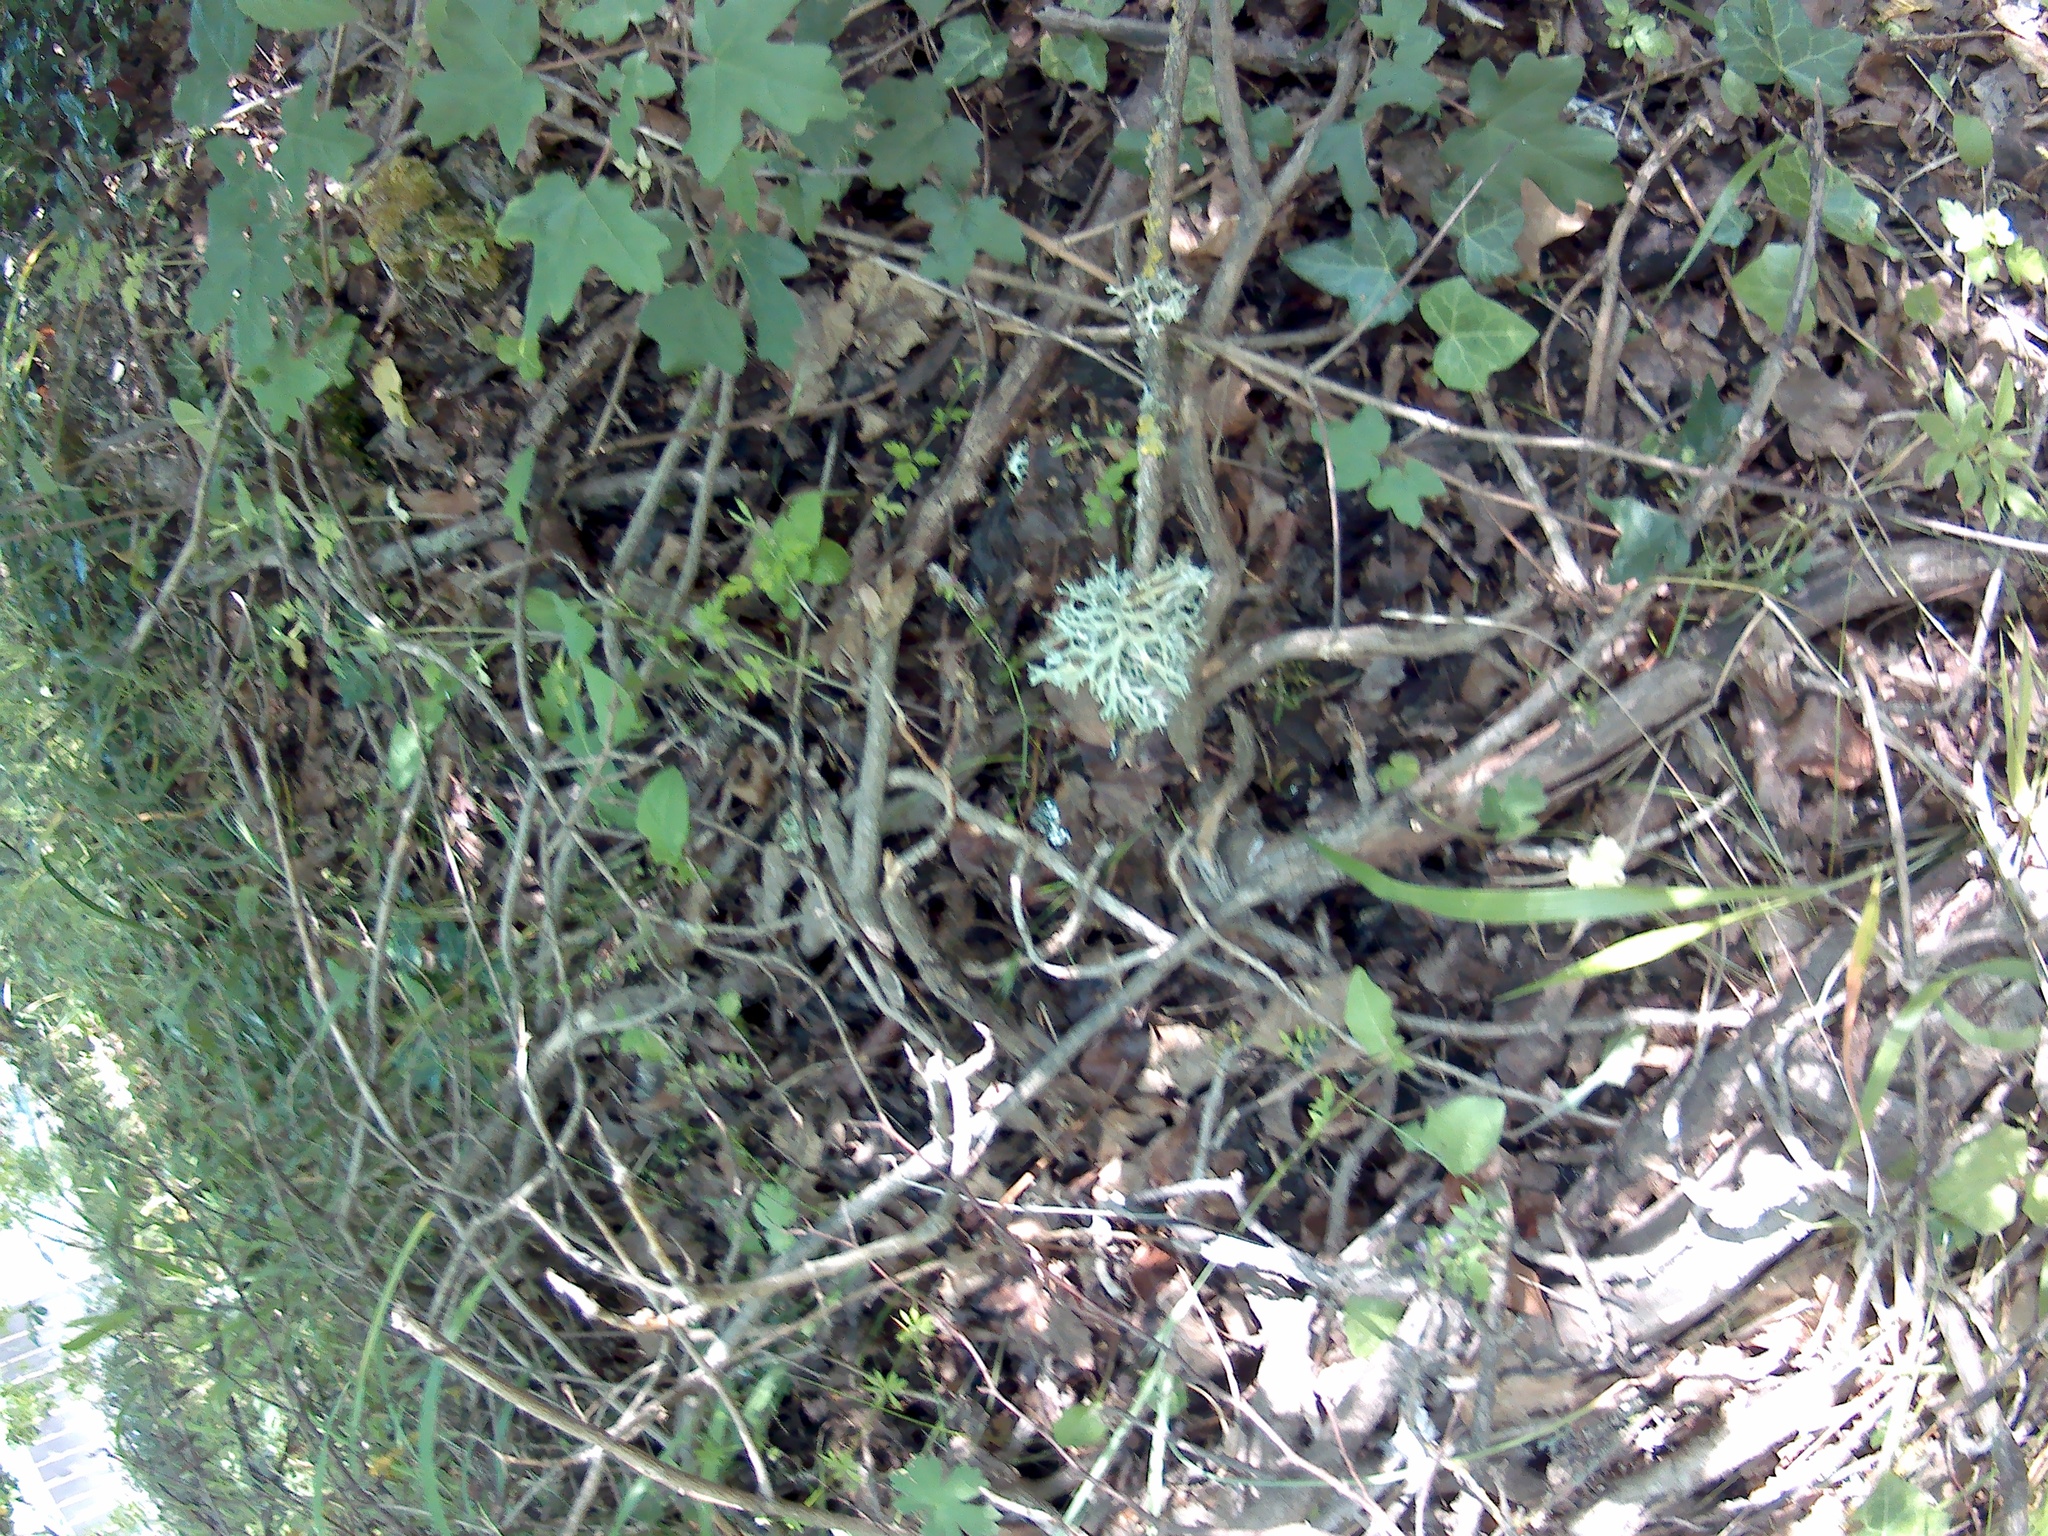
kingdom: Fungi
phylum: Ascomycota
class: Lecanoromycetes
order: Lecanorales
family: Parmeliaceae
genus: Evernia
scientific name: Evernia prunastri
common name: Oak moss
